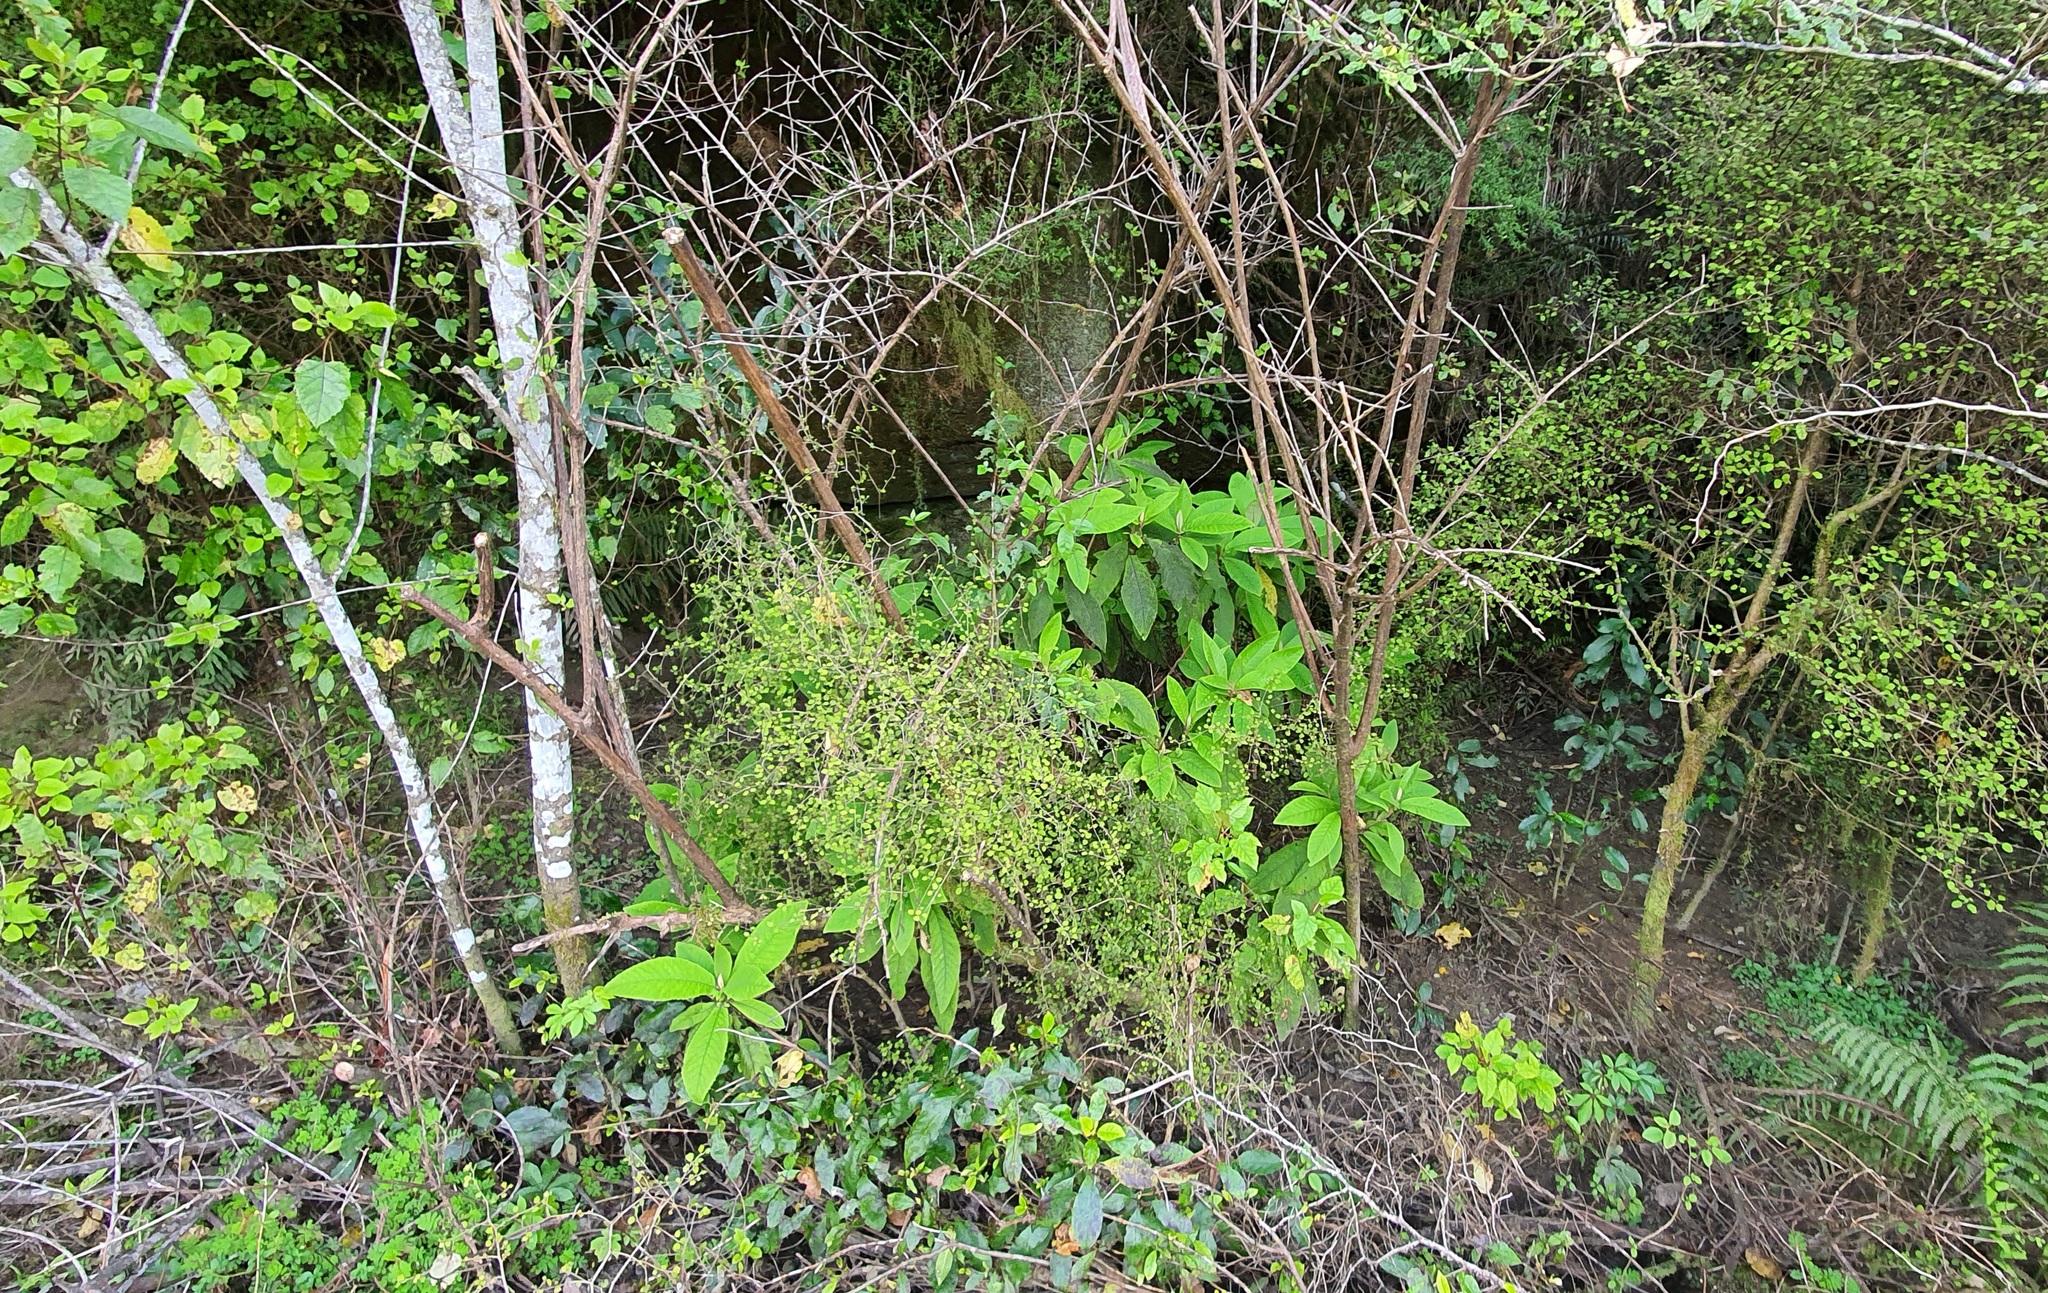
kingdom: Plantae
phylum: Tracheophyta
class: Magnoliopsida
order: Asterales
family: Asteraceae
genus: Brachyglottis
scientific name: Brachyglottis hectorii
